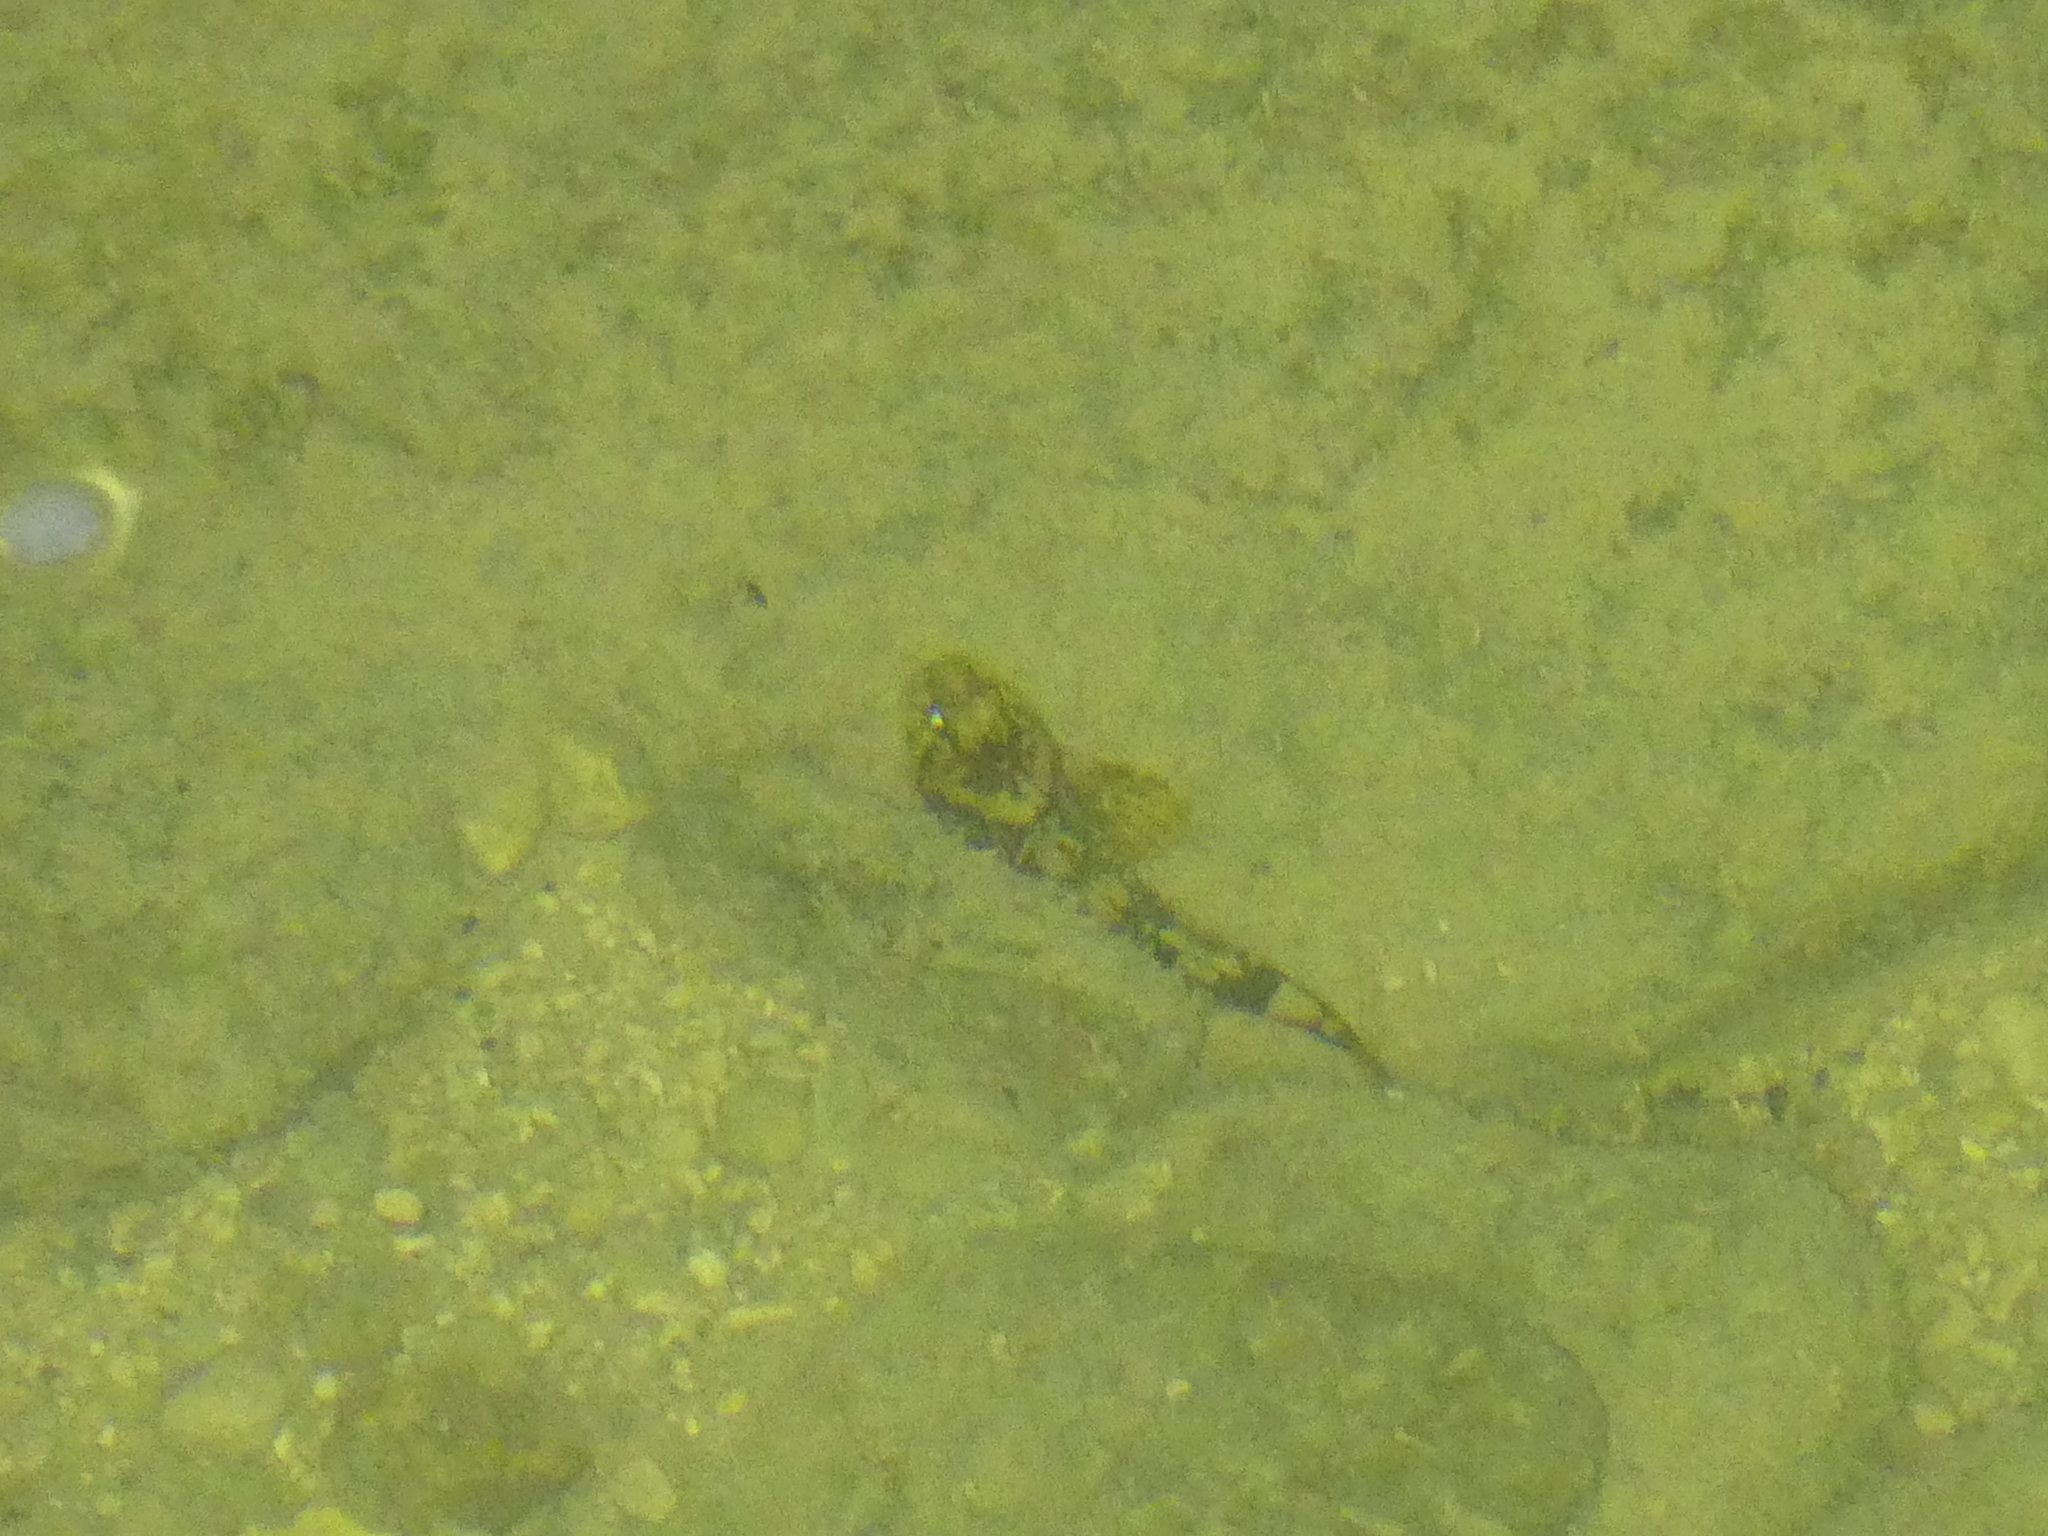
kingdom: Animalia
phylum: Chordata
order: Scorpaeniformes
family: Cottidae
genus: Cottus
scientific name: Cottus gobio
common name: Bullhead
